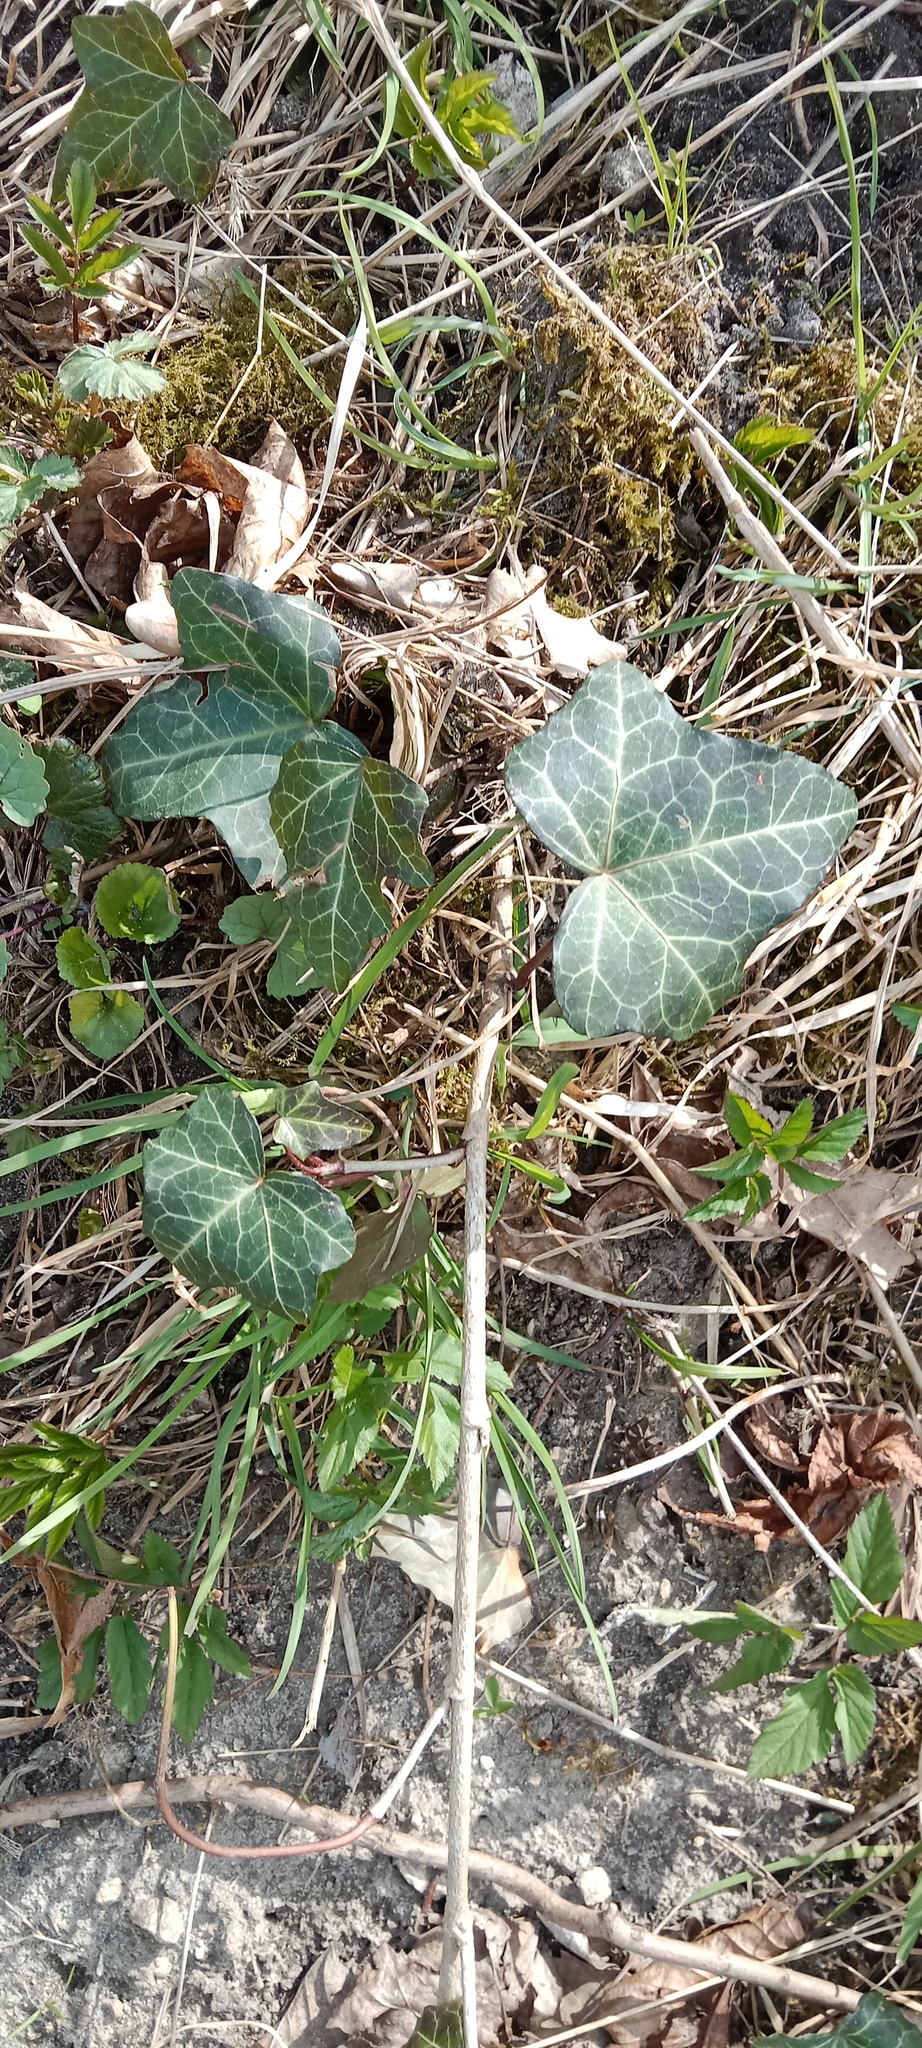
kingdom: Plantae
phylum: Tracheophyta
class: Magnoliopsida
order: Apiales
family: Araliaceae
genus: Hedera
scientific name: Hedera helix
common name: Ivy
